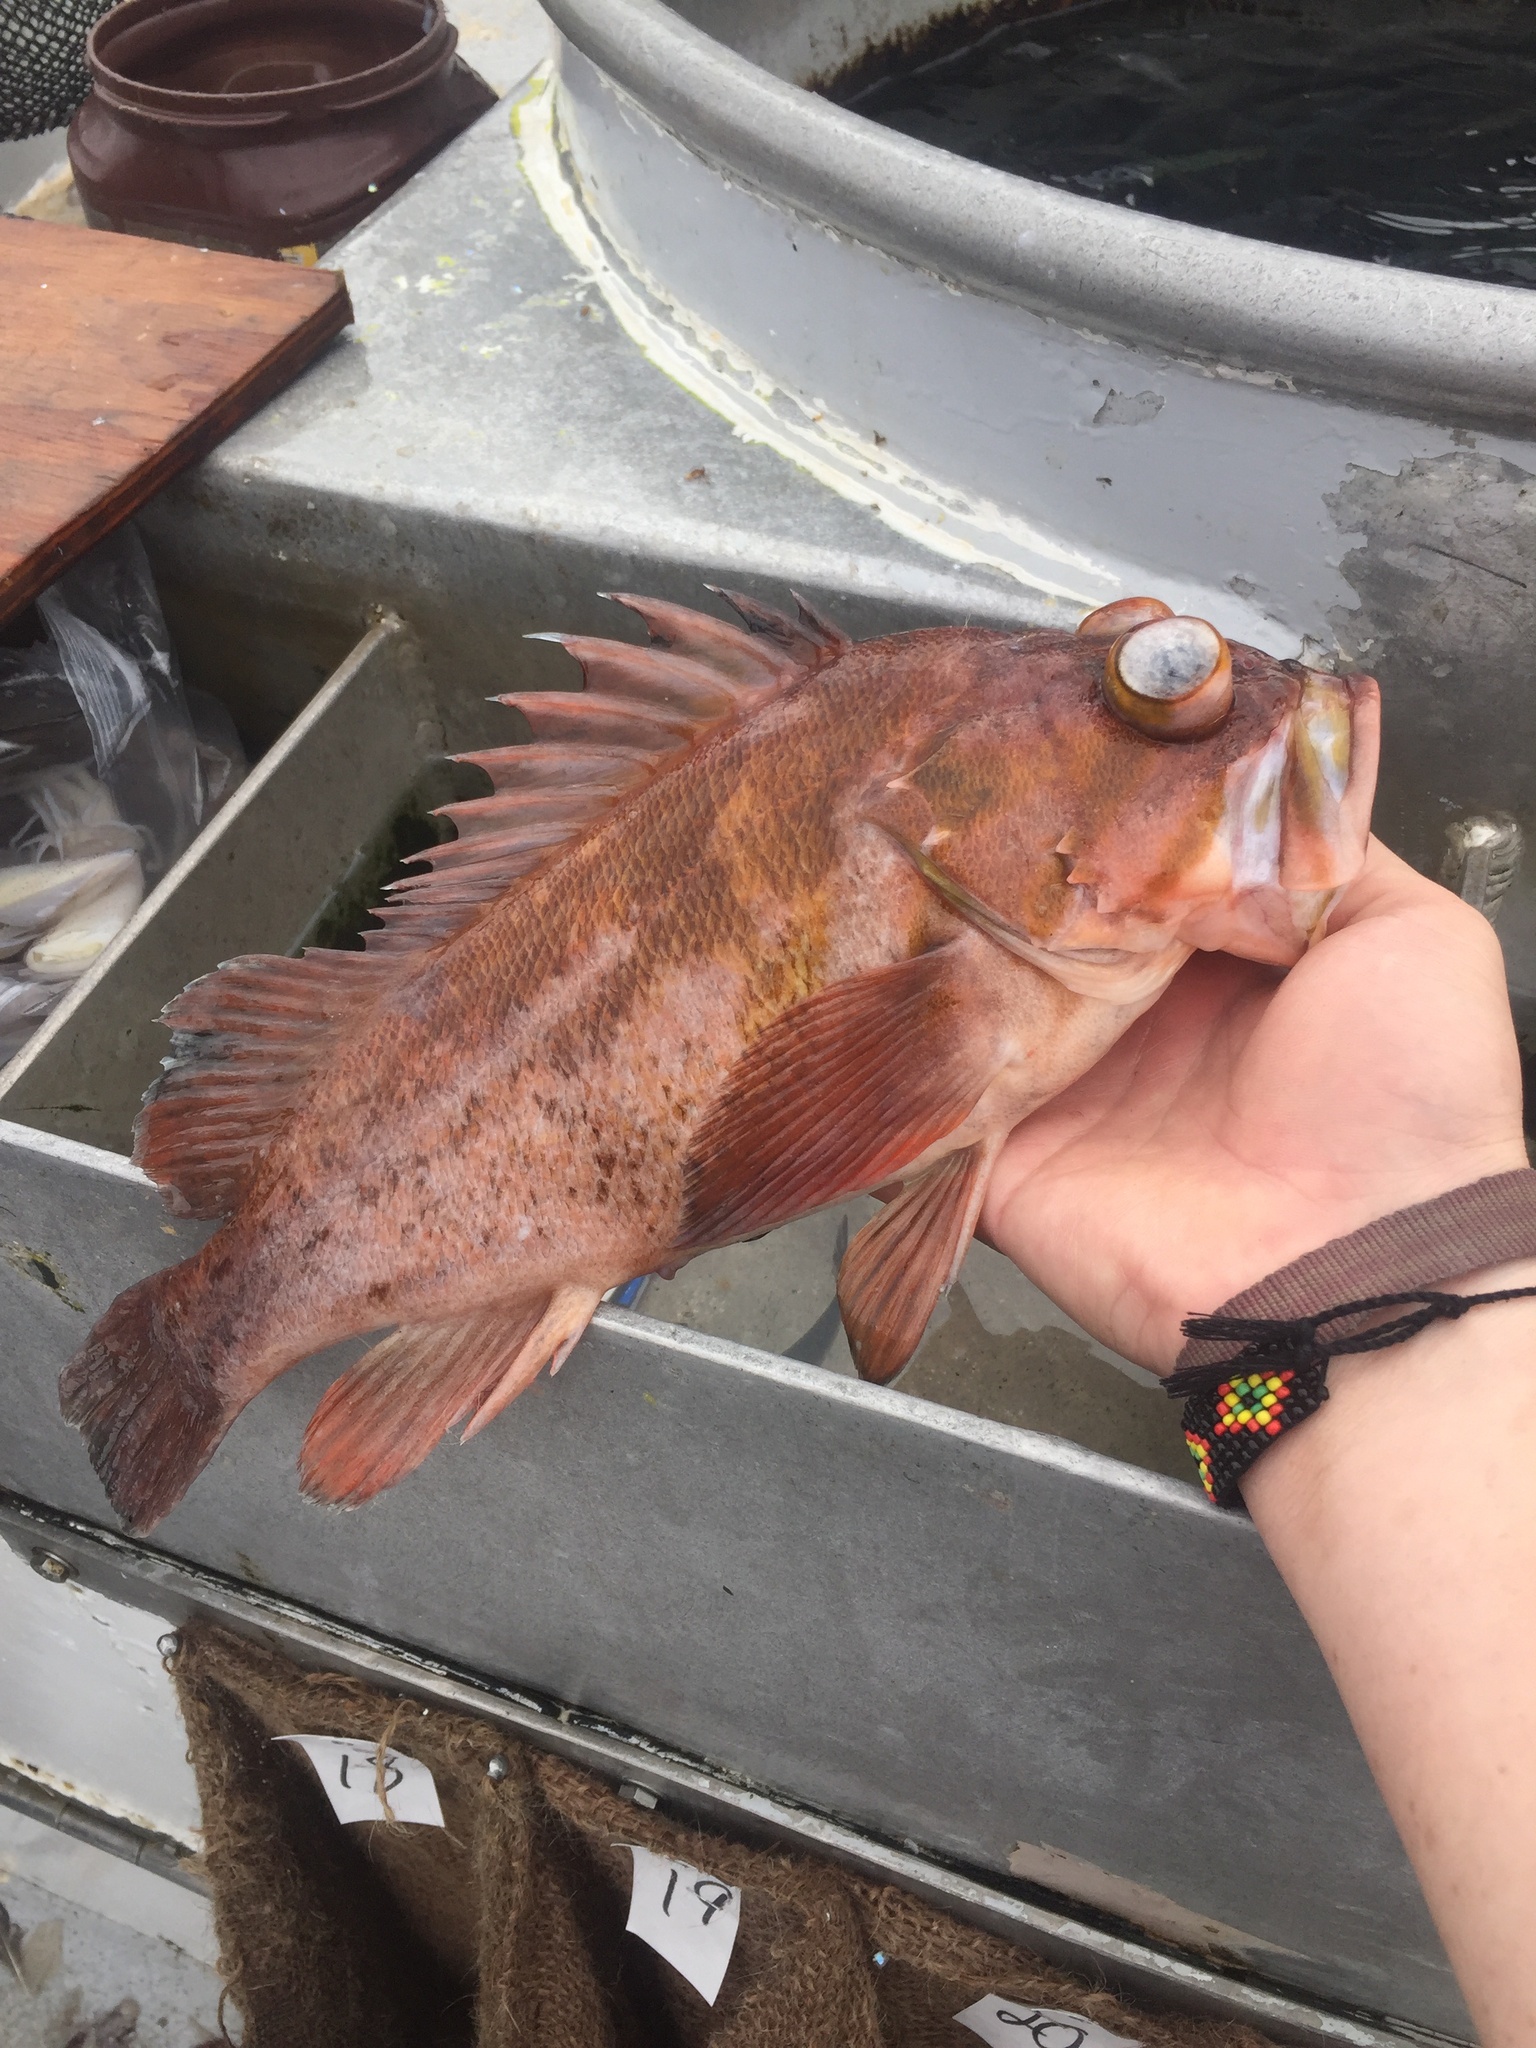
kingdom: Animalia
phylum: Chordata
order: Scorpaeniformes
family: Sebastidae
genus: Sebastes
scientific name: Sebastes caurinus
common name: Copper rockfish
